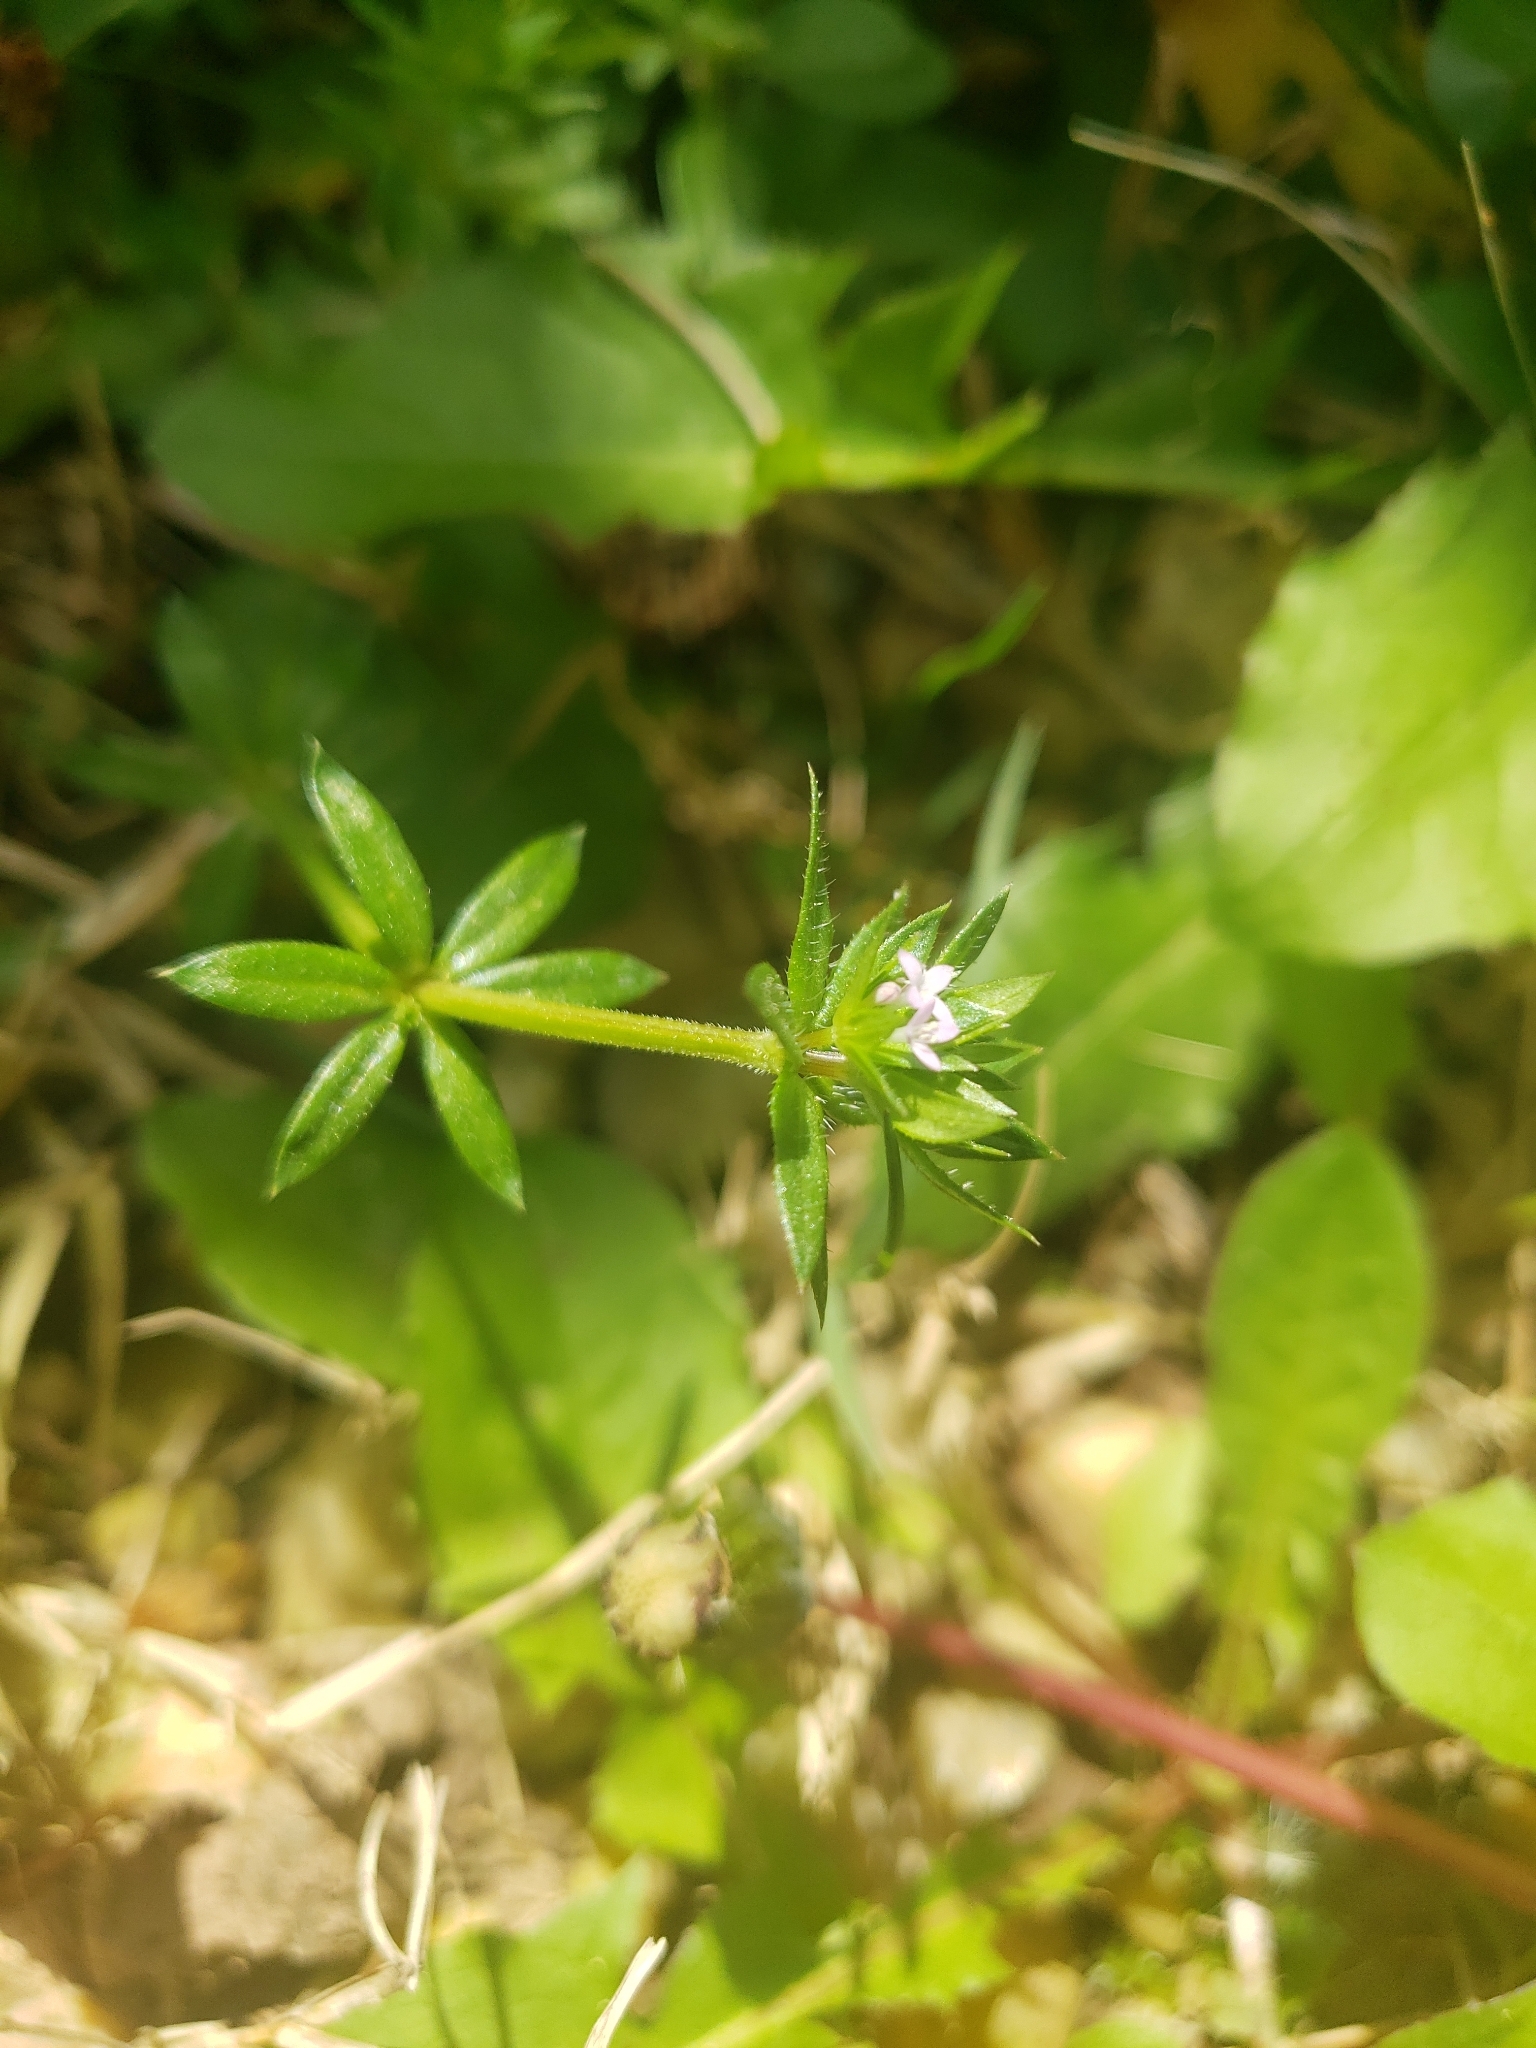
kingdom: Plantae
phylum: Tracheophyta
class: Magnoliopsida
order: Gentianales
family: Rubiaceae
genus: Sherardia
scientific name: Sherardia arvensis
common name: Field madder
